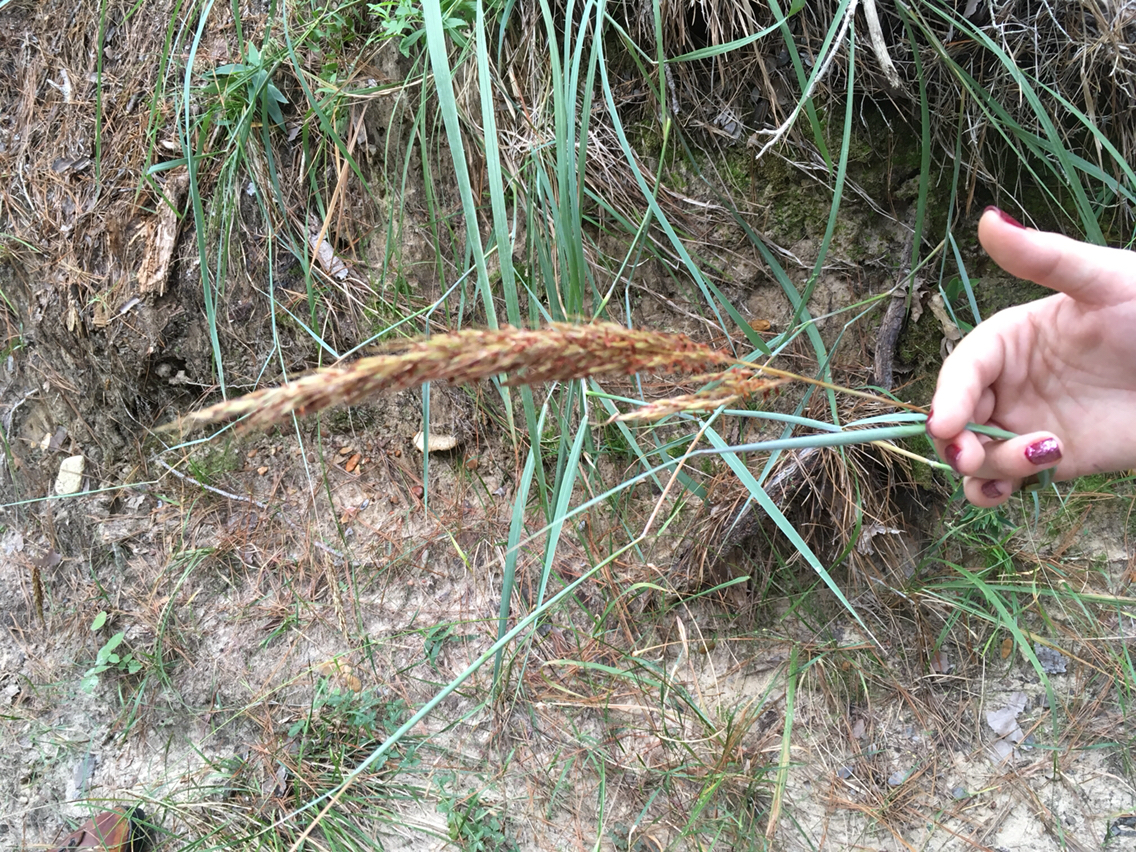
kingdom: Plantae
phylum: Tracheophyta
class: Liliopsida
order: Poales
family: Poaceae
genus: Sorghastrum
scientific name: Sorghastrum nutans
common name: Indian grass
